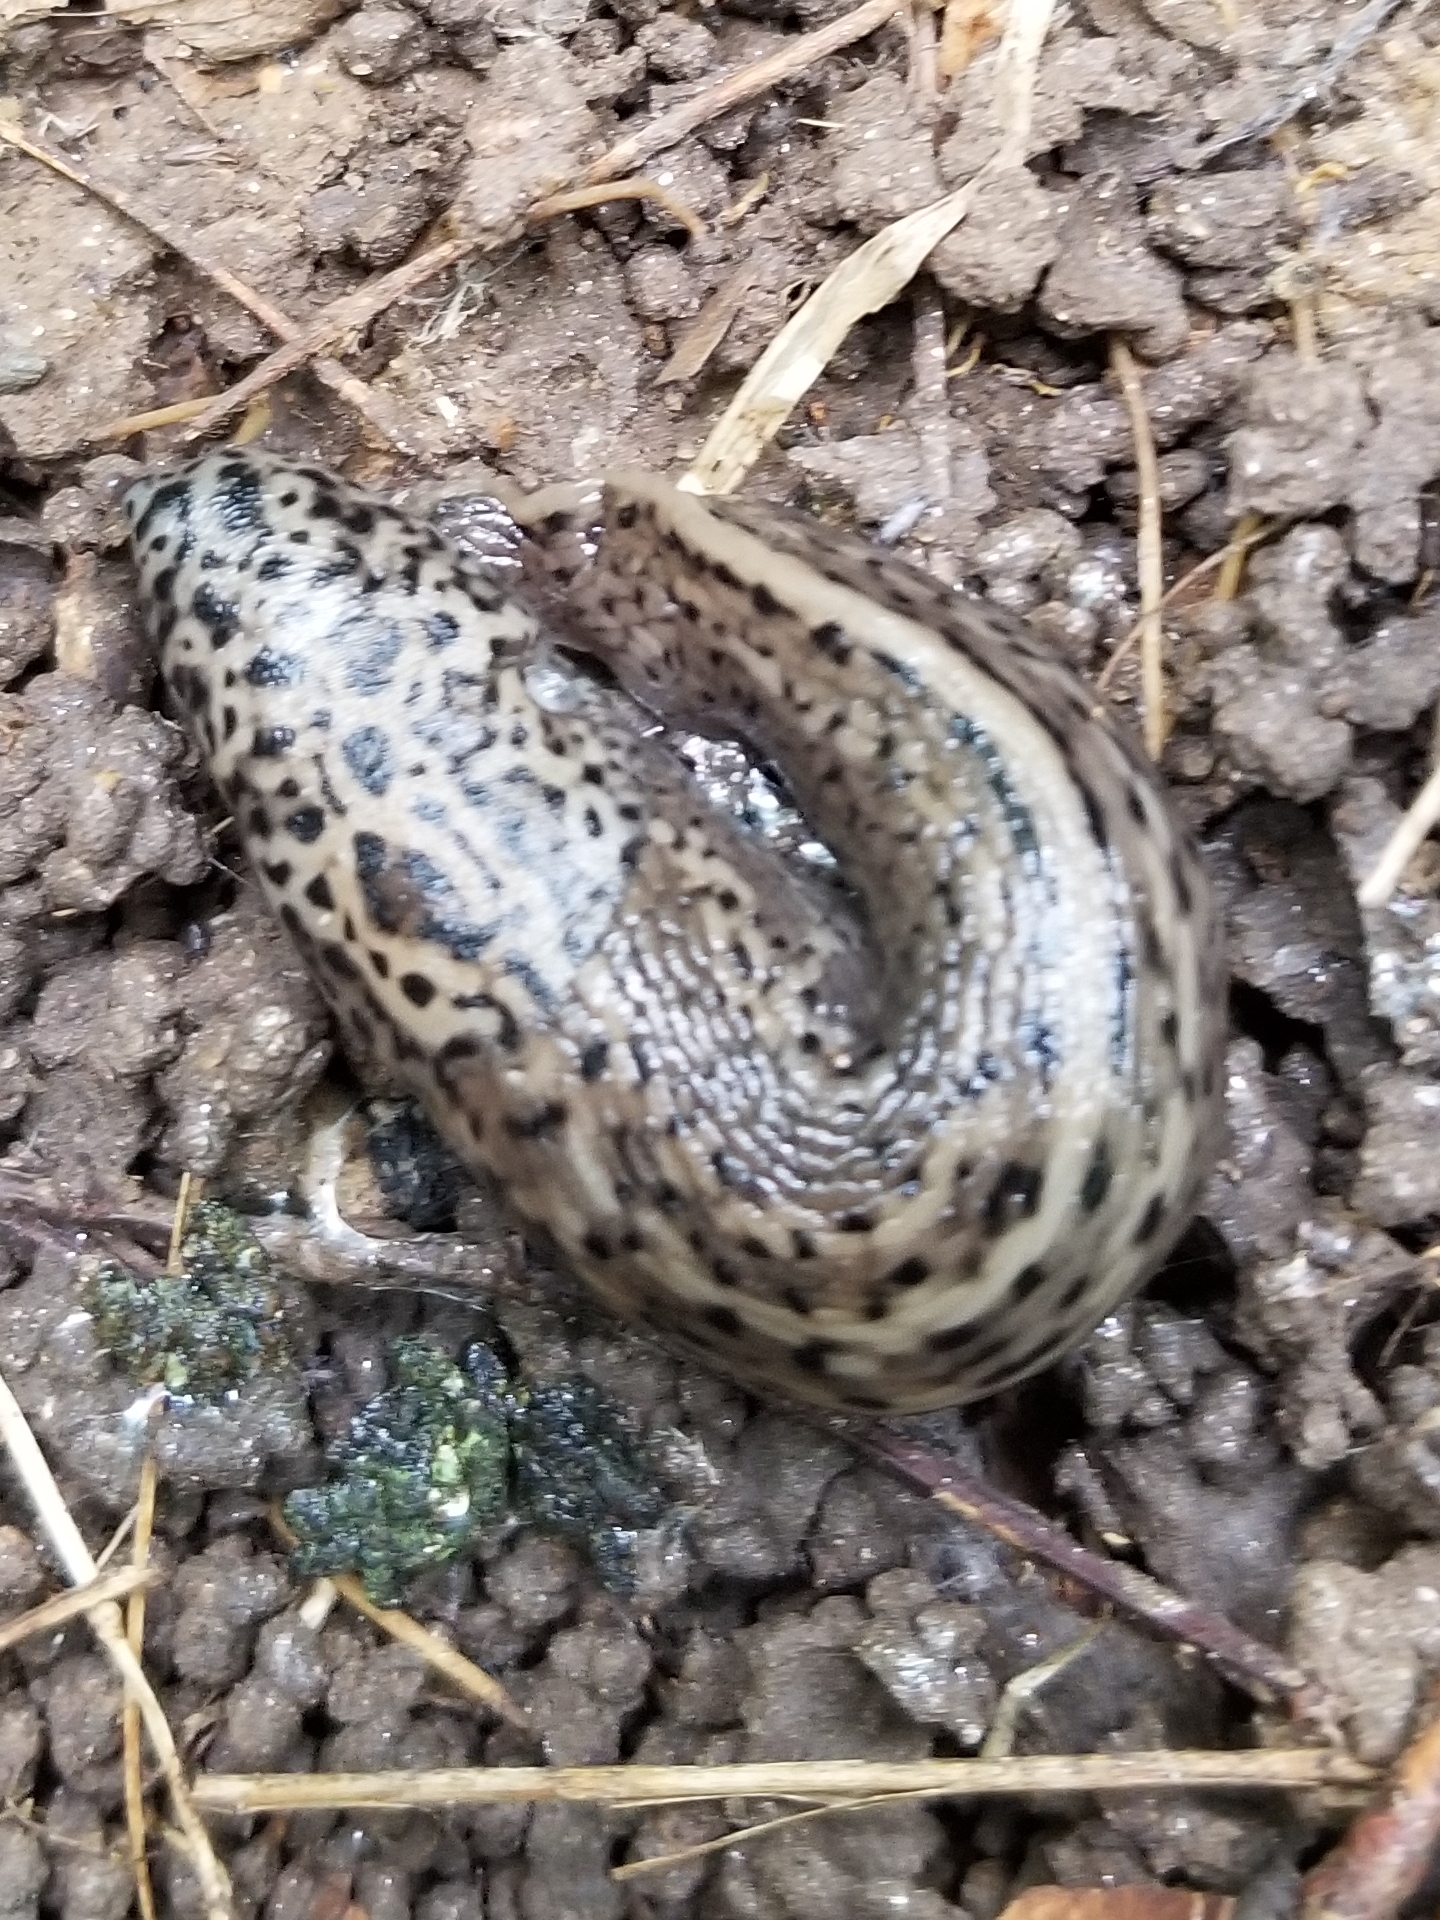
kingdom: Animalia
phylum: Mollusca
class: Gastropoda
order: Stylommatophora
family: Limacidae
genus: Limax
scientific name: Limax maximus
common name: Great grey slug
